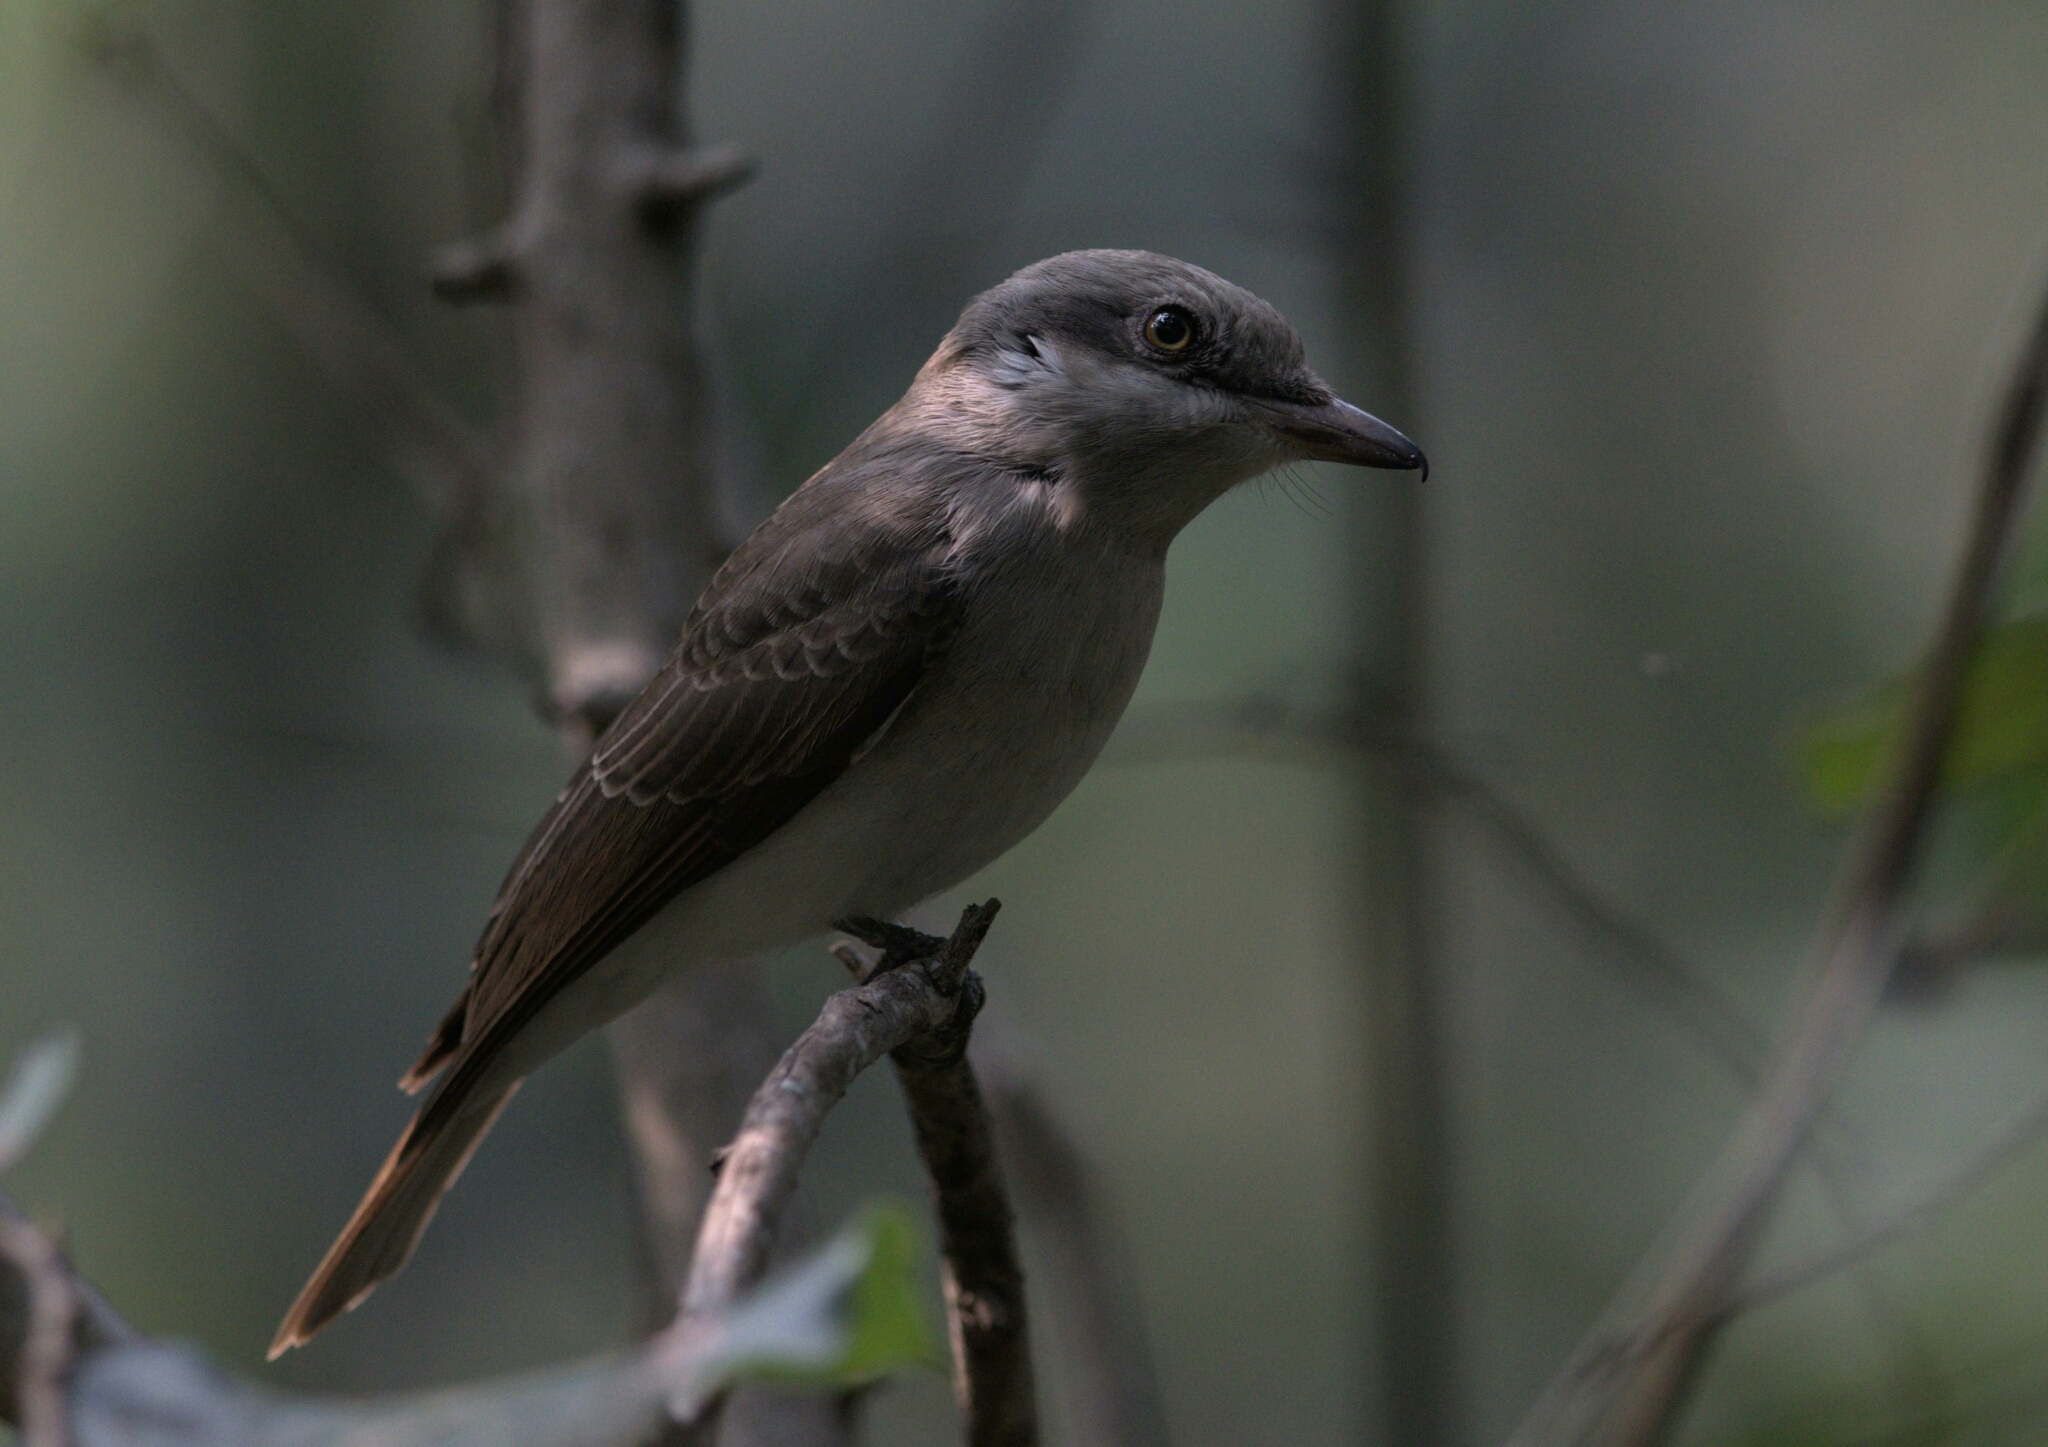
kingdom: Animalia
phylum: Chordata
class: Aves
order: Passeriformes
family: Tephrodornithidae
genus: Tephrodornis
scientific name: Tephrodornis virgatus
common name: Large woodshrike
